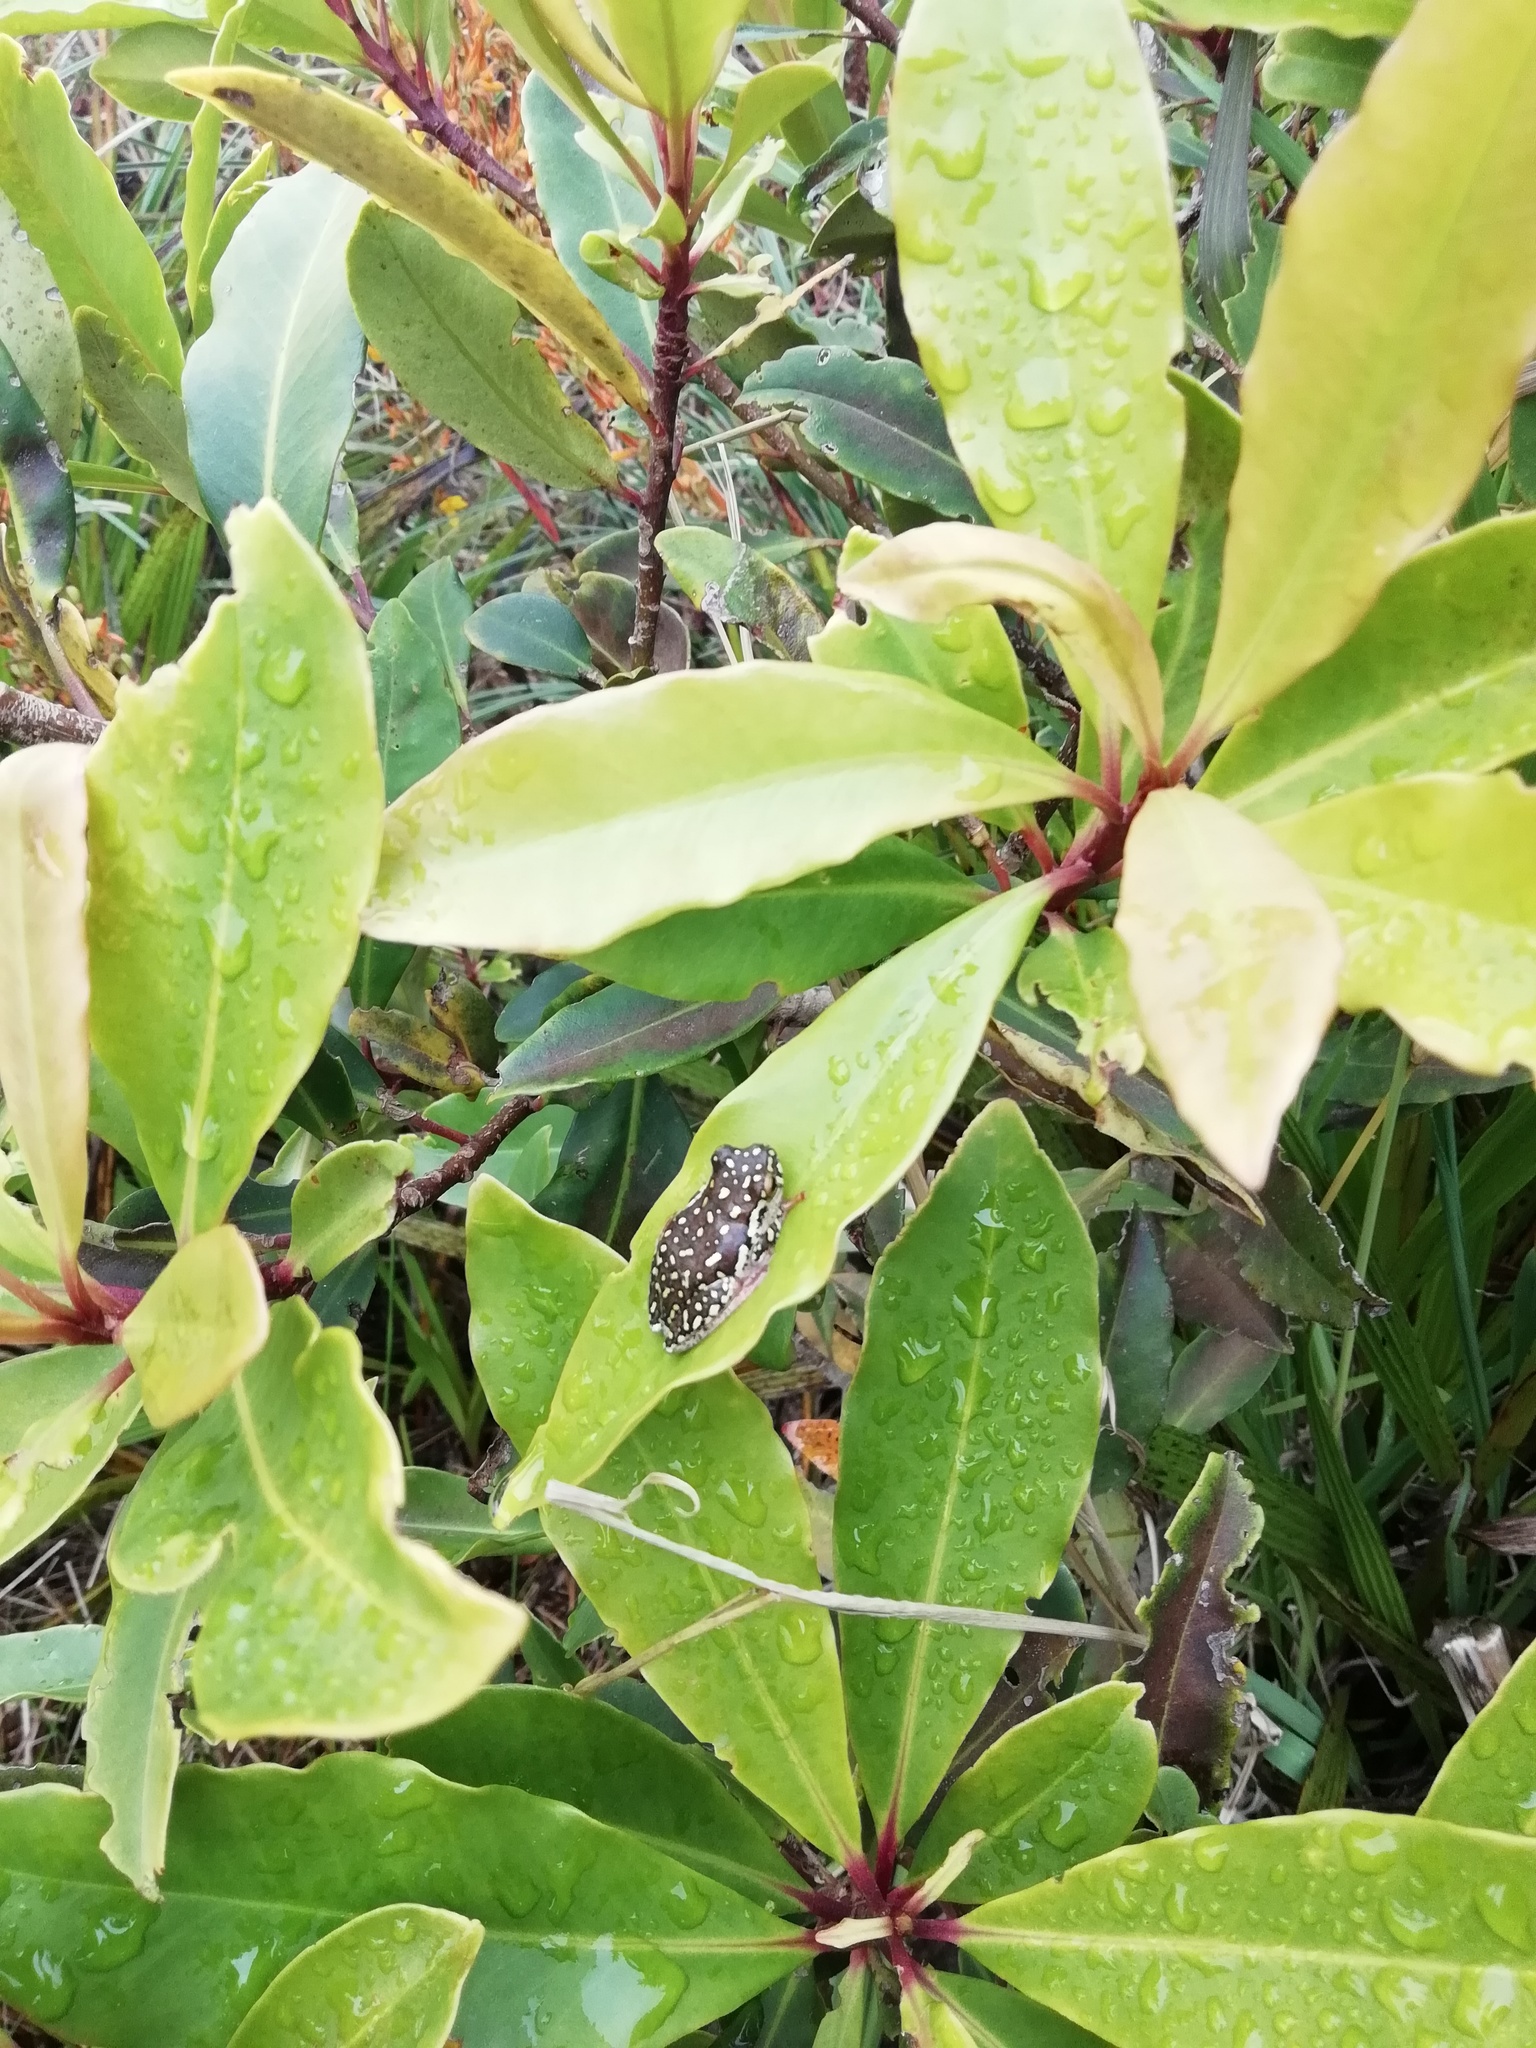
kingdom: Animalia
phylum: Chordata
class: Amphibia
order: Anura
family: Hyperoliidae
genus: Hyperolius
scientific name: Hyperolius marmoratus
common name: Painted reed frog
